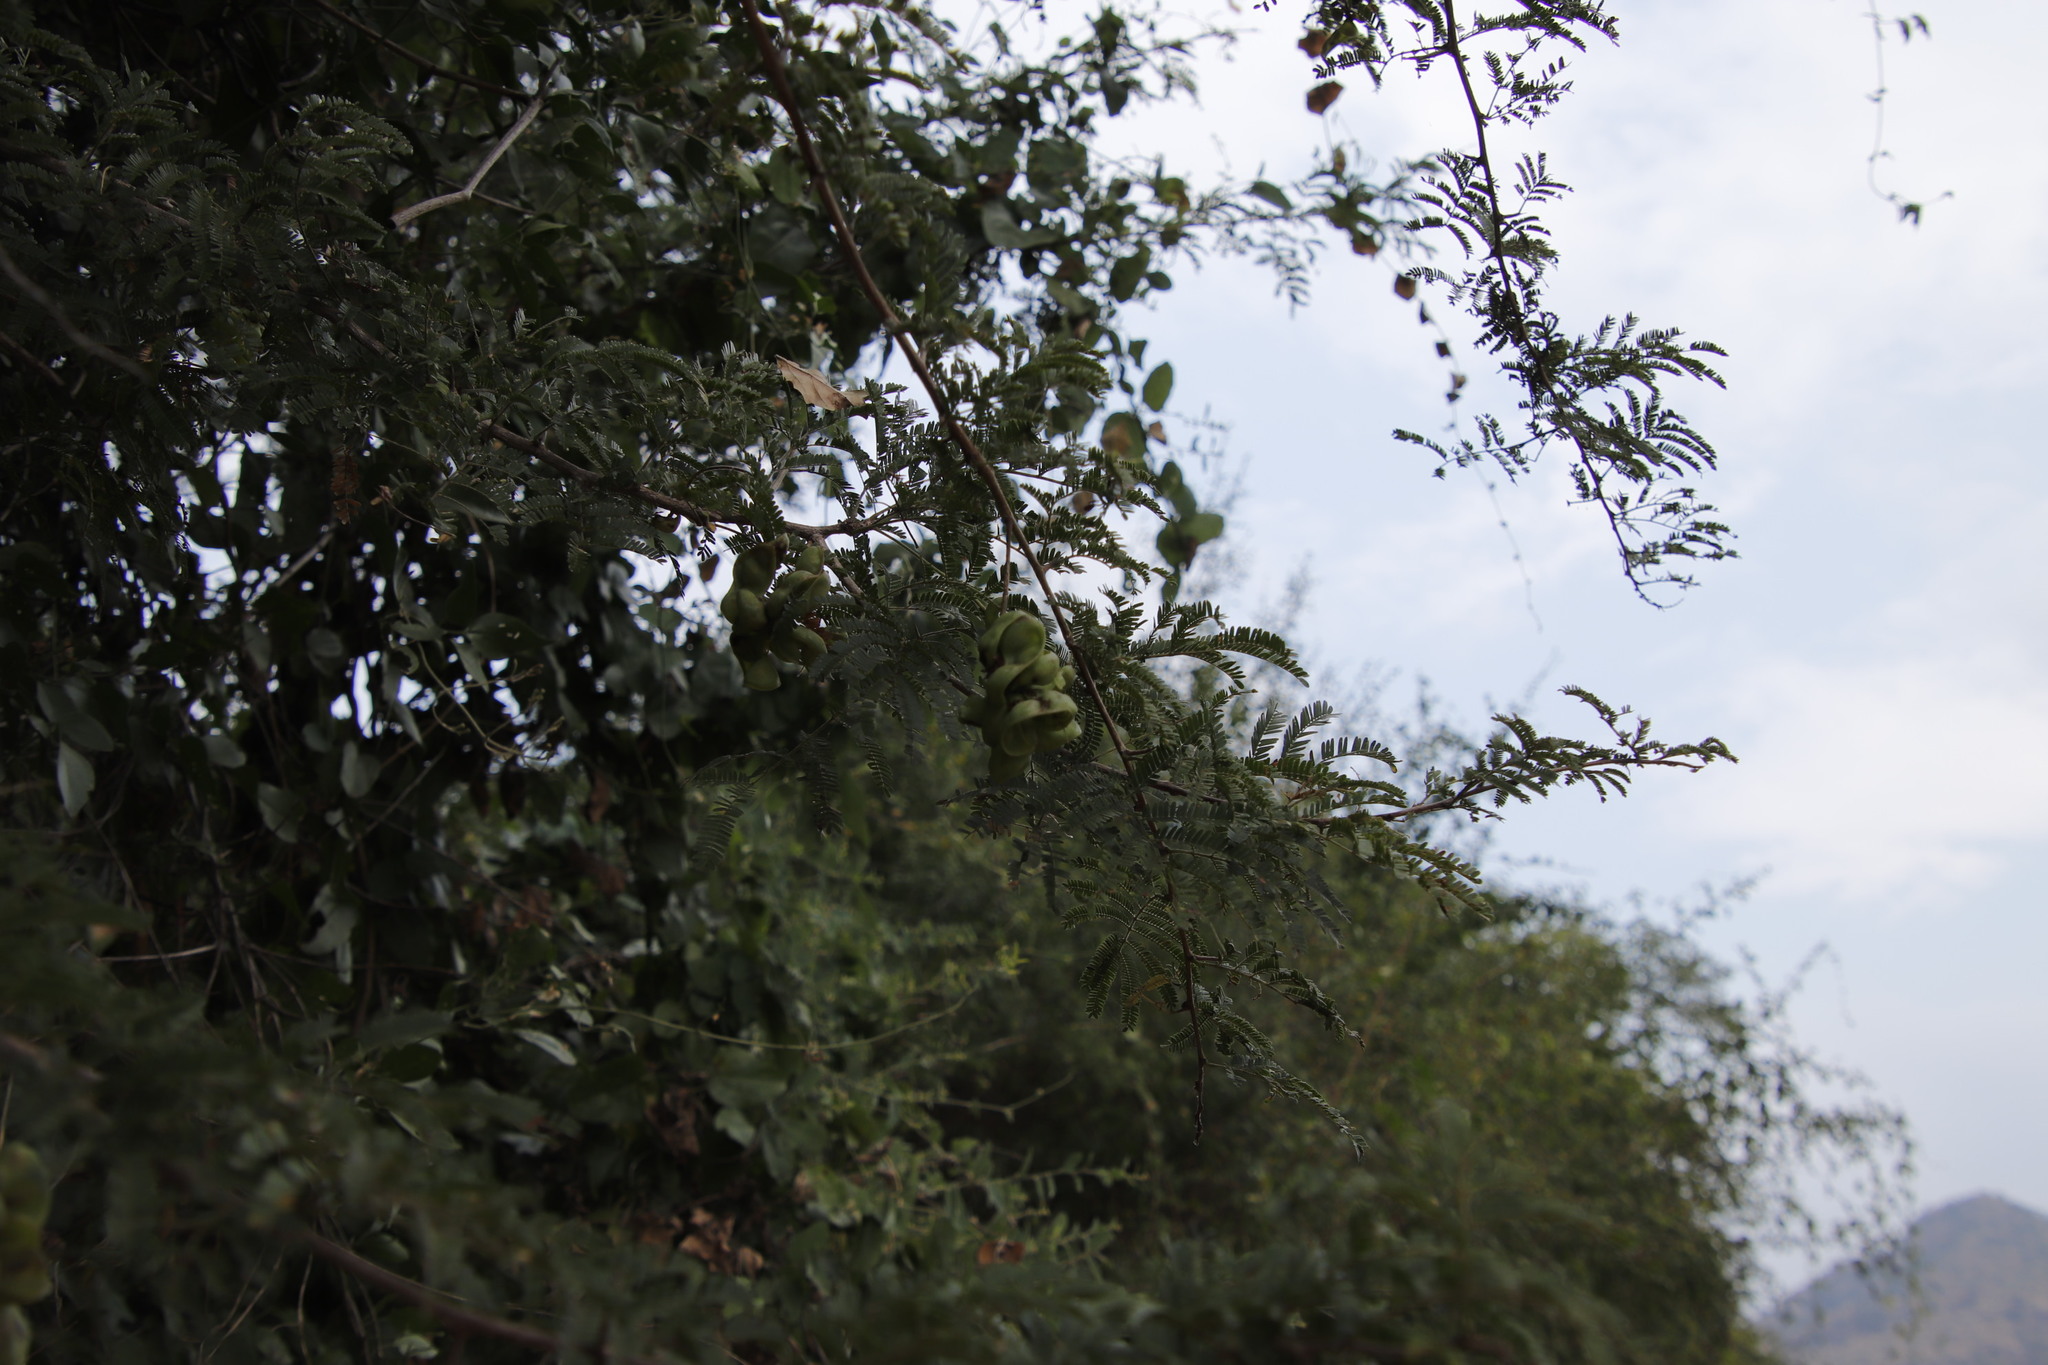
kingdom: Plantae
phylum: Tracheophyta
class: Magnoliopsida
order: Fabales
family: Fabaceae
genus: Dichrostachys
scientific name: Dichrostachys cinerea
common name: Sicklebush
